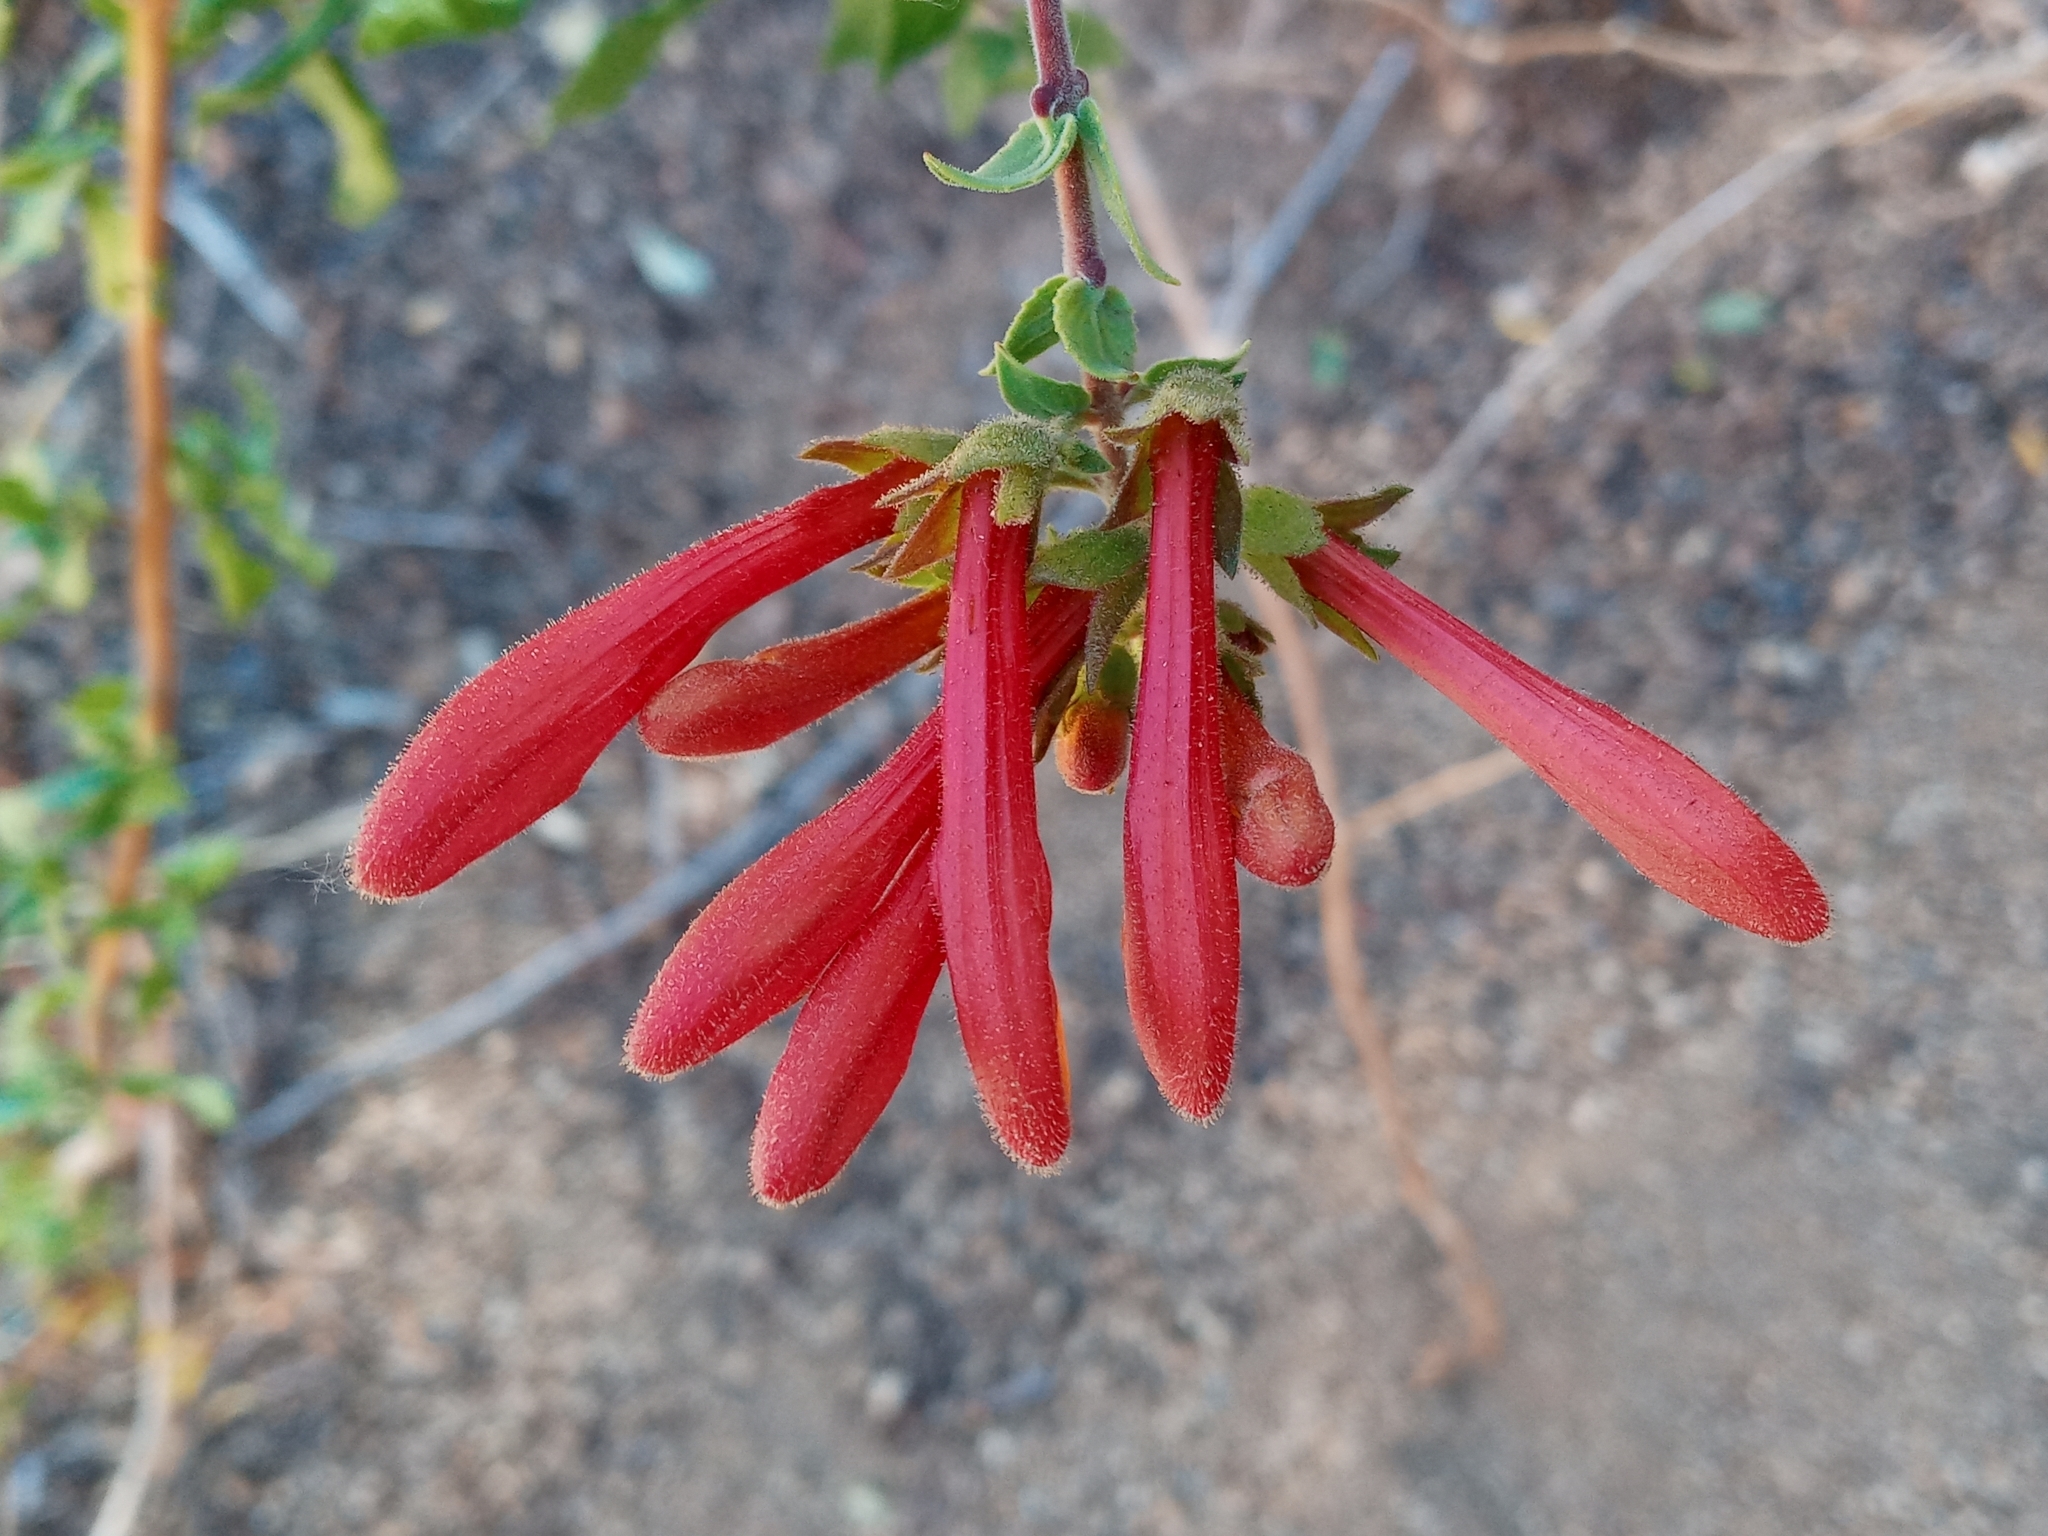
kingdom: Plantae
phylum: Tracheophyta
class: Magnoliopsida
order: Lamiales
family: Plantaginaceae
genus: Keckiella
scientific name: Keckiella cordifolia
